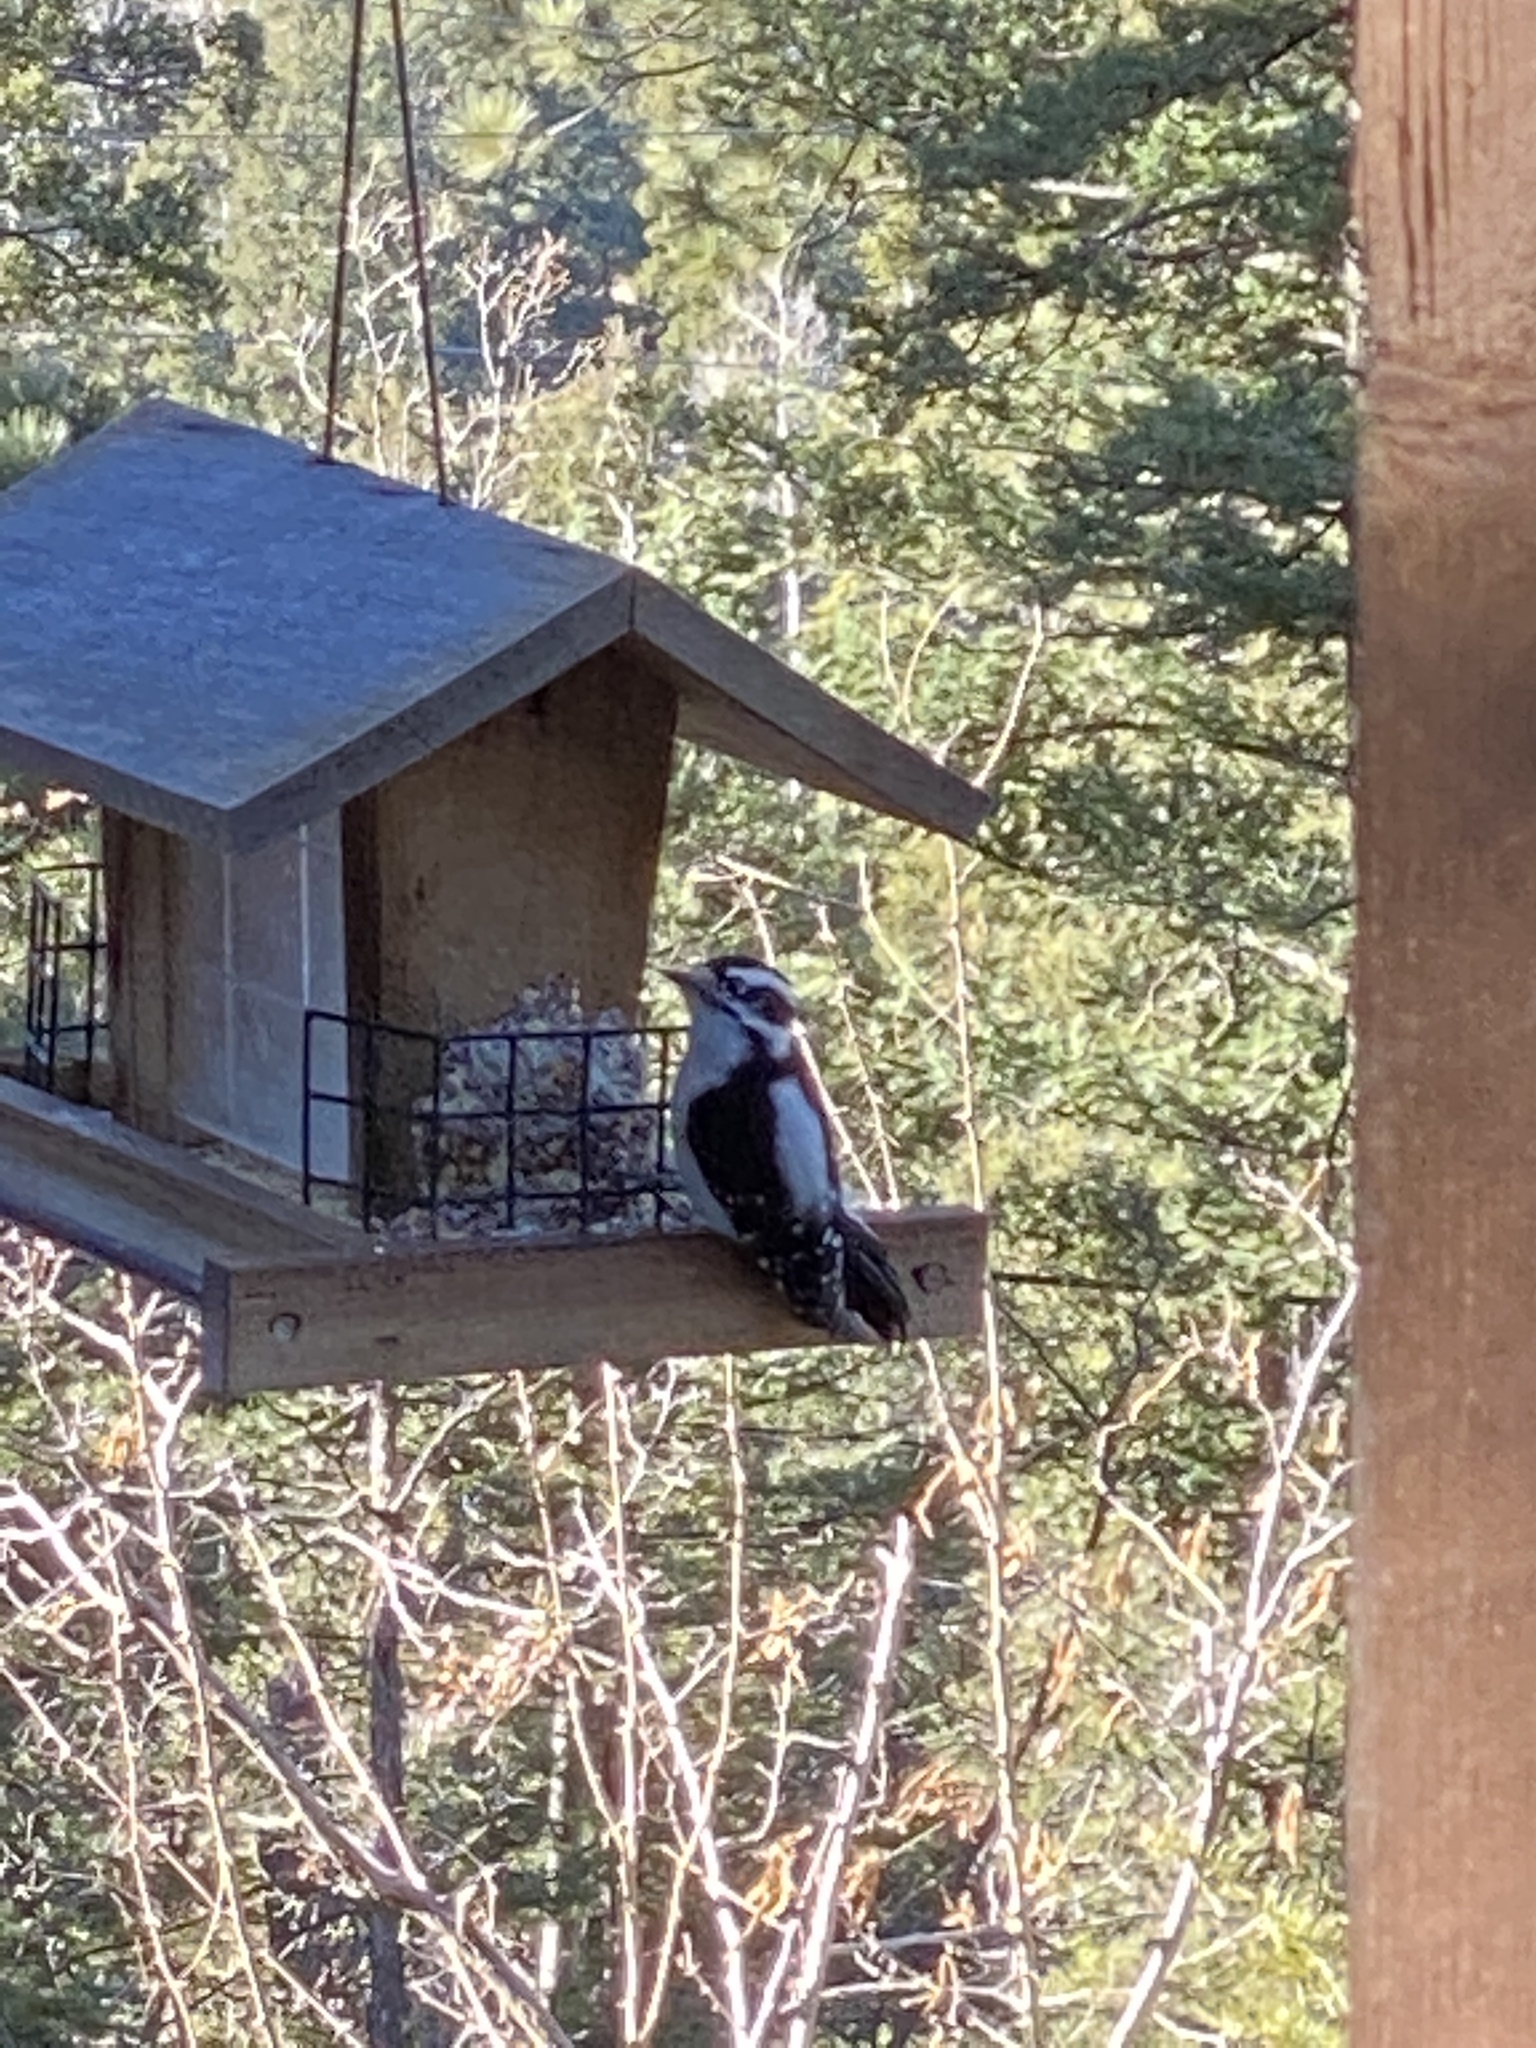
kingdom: Animalia
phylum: Chordata
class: Aves
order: Piciformes
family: Picidae
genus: Dryobates
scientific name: Dryobates pubescens
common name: Downy woodpecker
